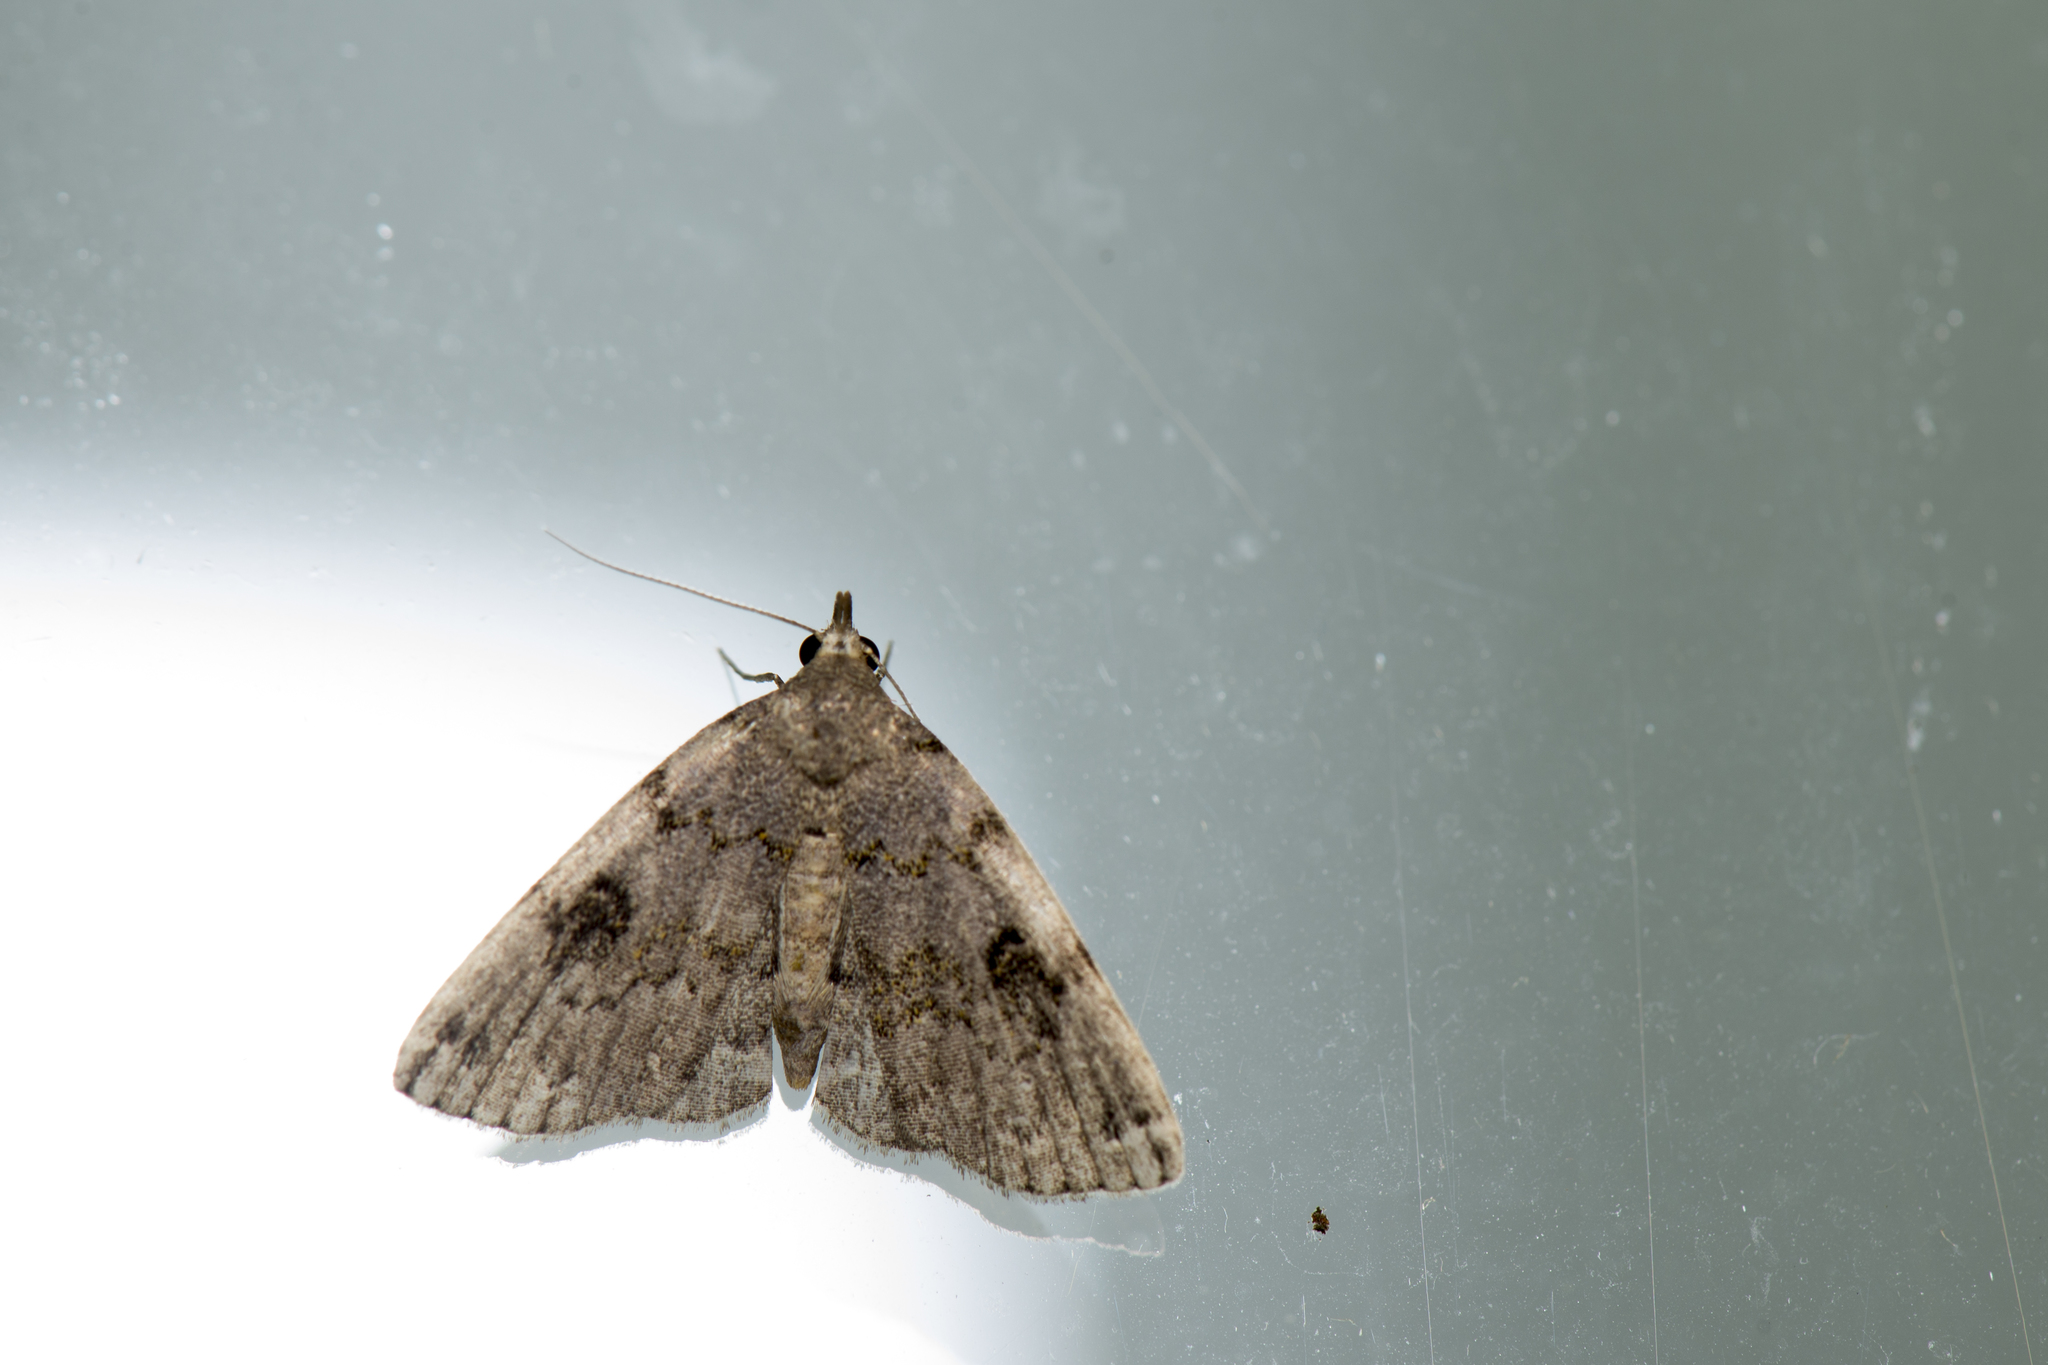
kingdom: Animalia
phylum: Arthropoda
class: Insecta
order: Lepidoptera
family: Erebidae
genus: Sinarella
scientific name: Sinarella nigrisigna
